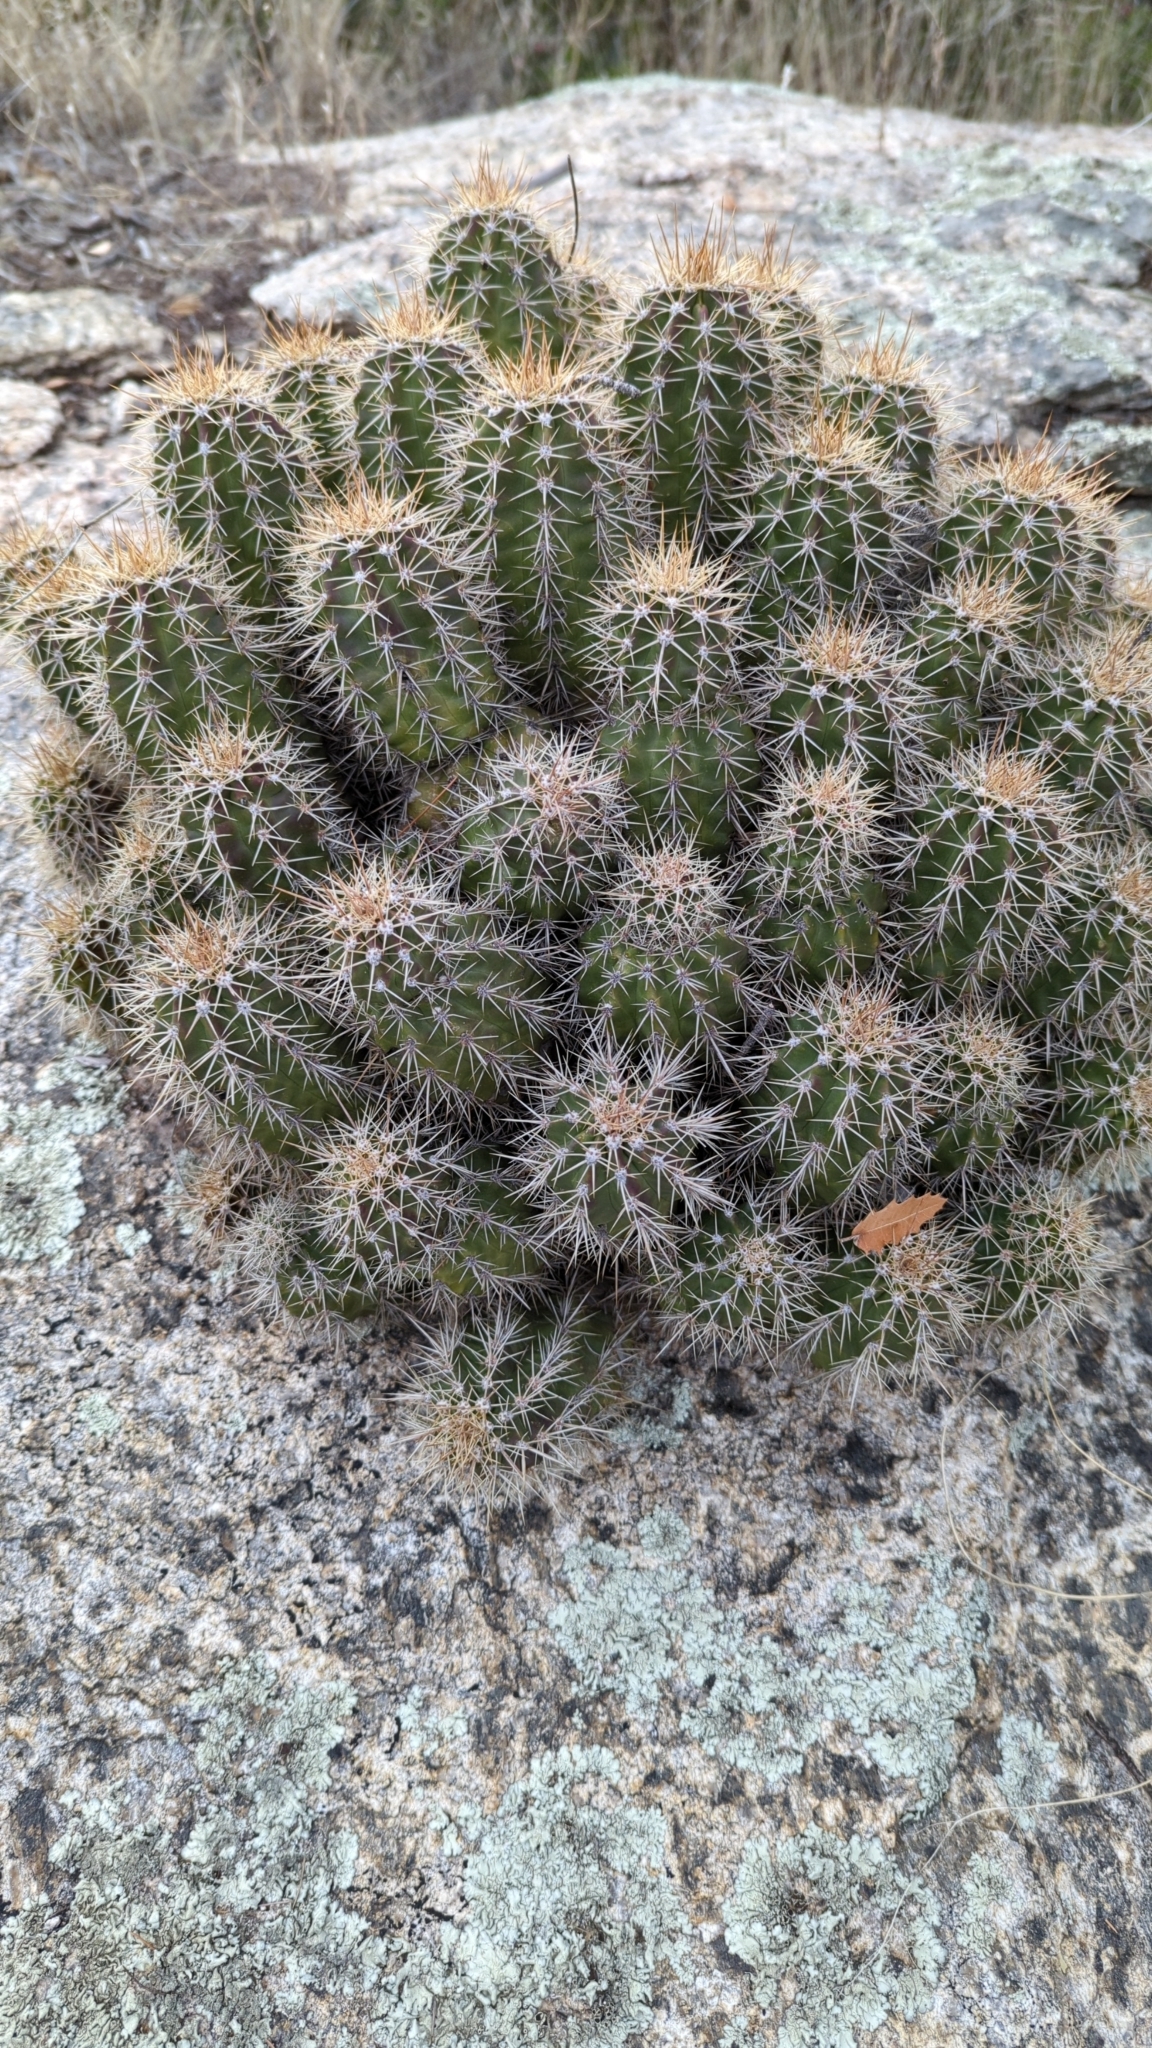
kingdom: Plantae
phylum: Tracheophyta
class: Magnoliopsida
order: Caryophyllales
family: Cactaceae
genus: Echinocereus
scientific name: Echinocereus coccineus
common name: Scarlet hedgehog cactus
